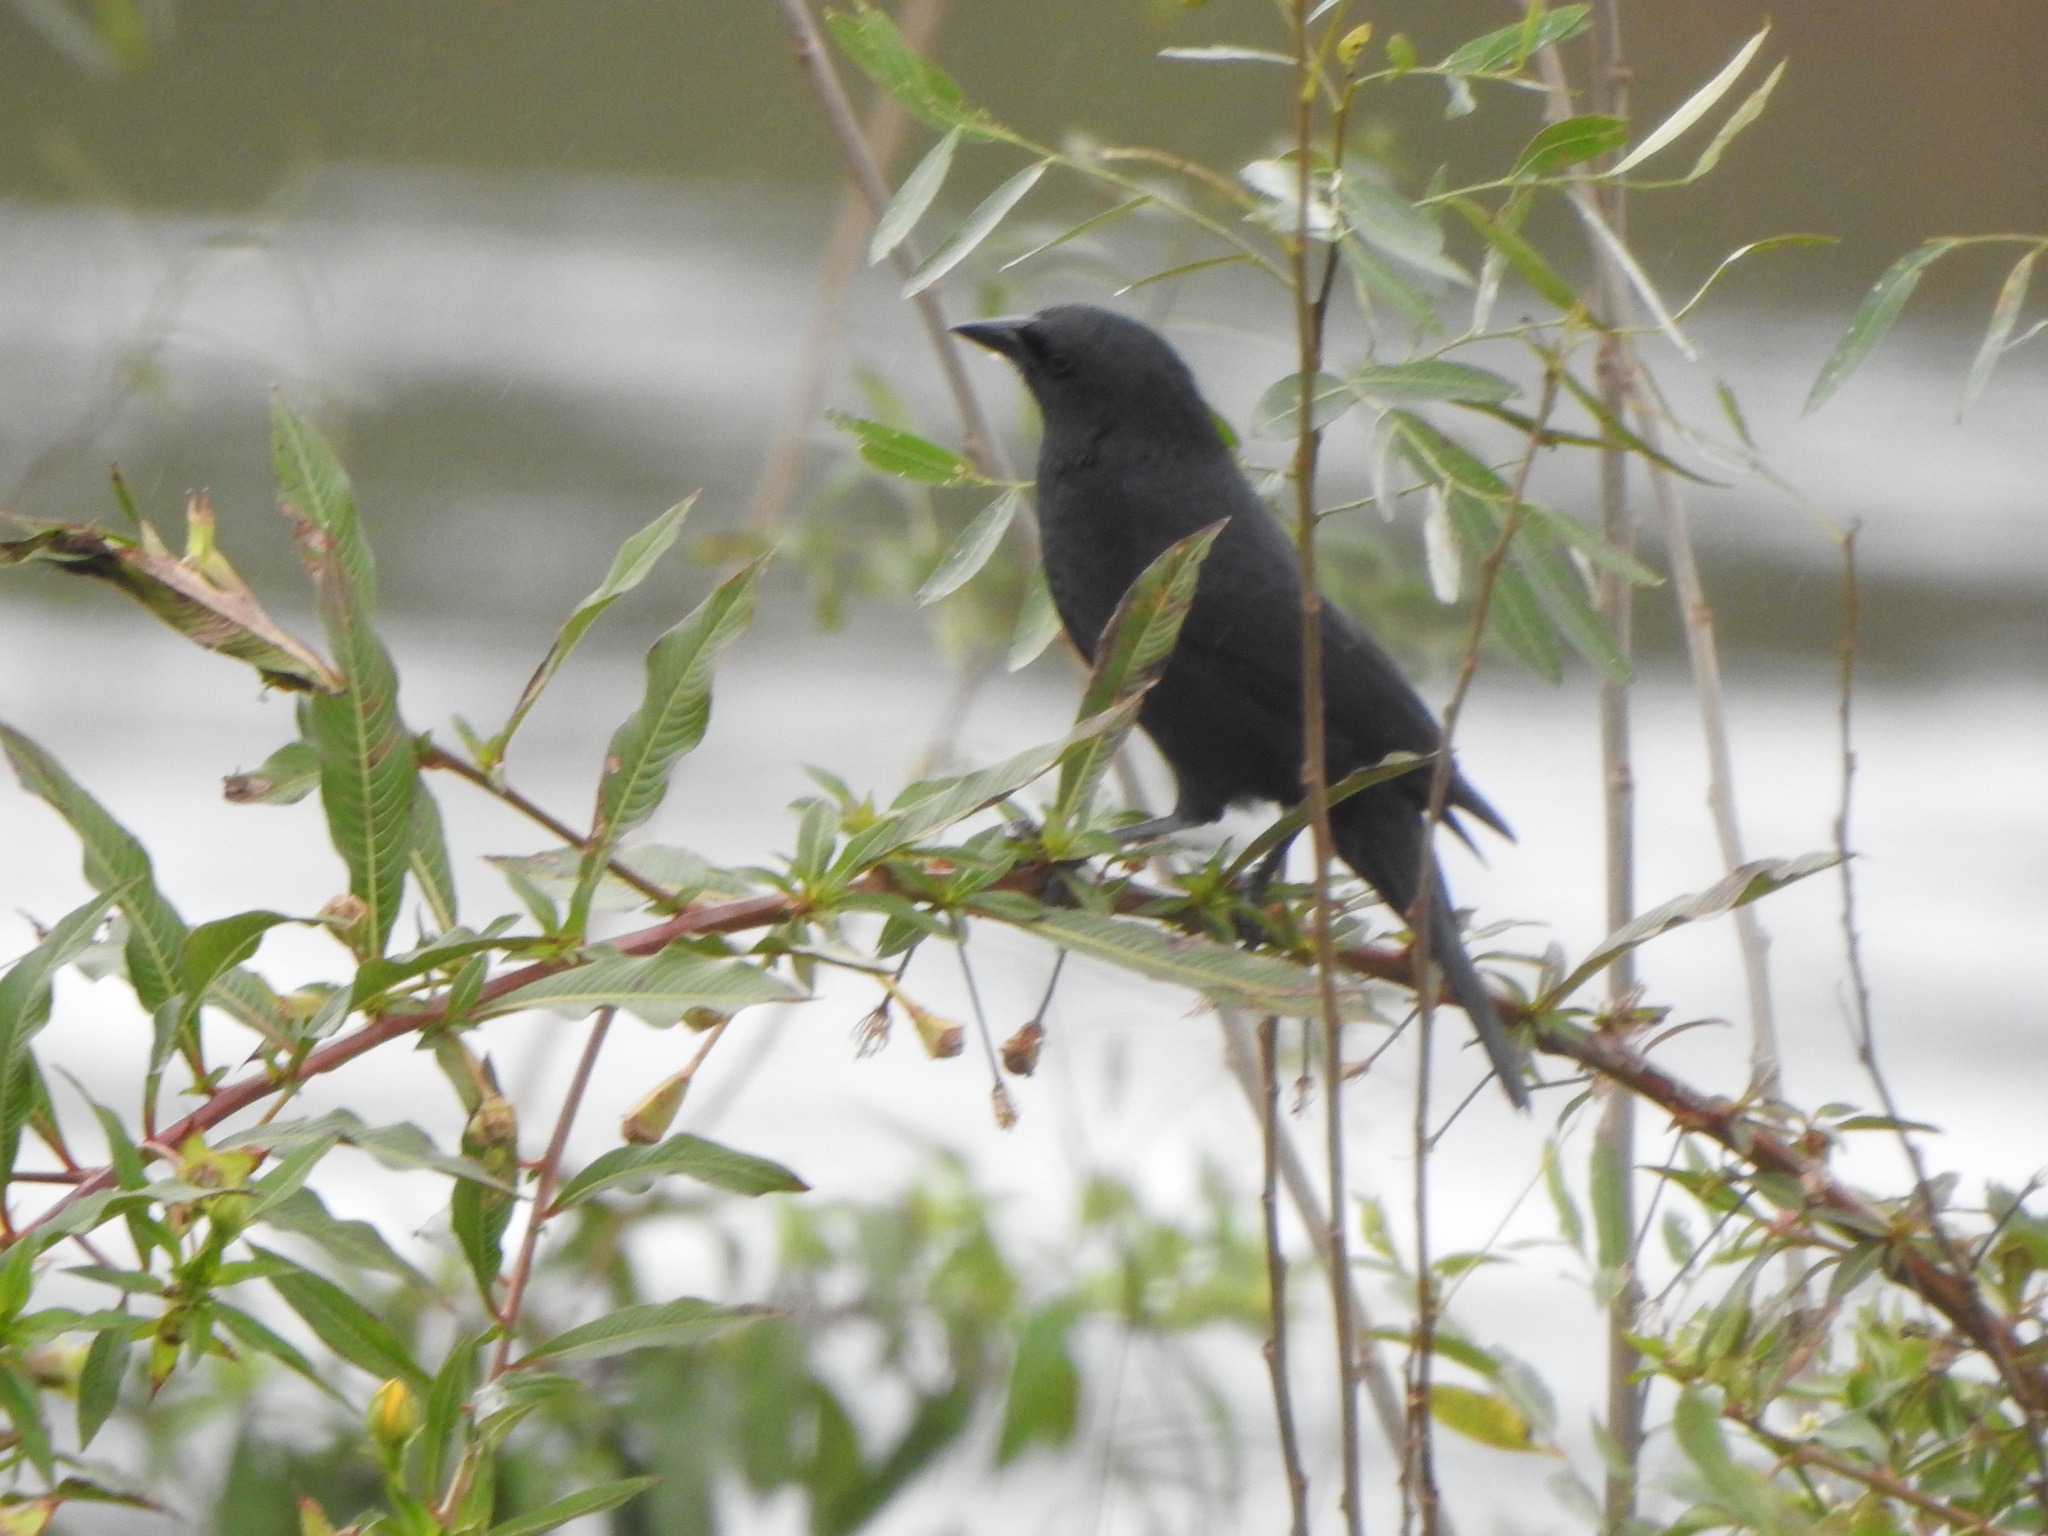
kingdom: Animalia
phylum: Chordata
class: Aves
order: Passeriformes
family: Icteridae
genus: Gnorimopsar
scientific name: Gnorimopsar chopi
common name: Chopi blackbird
